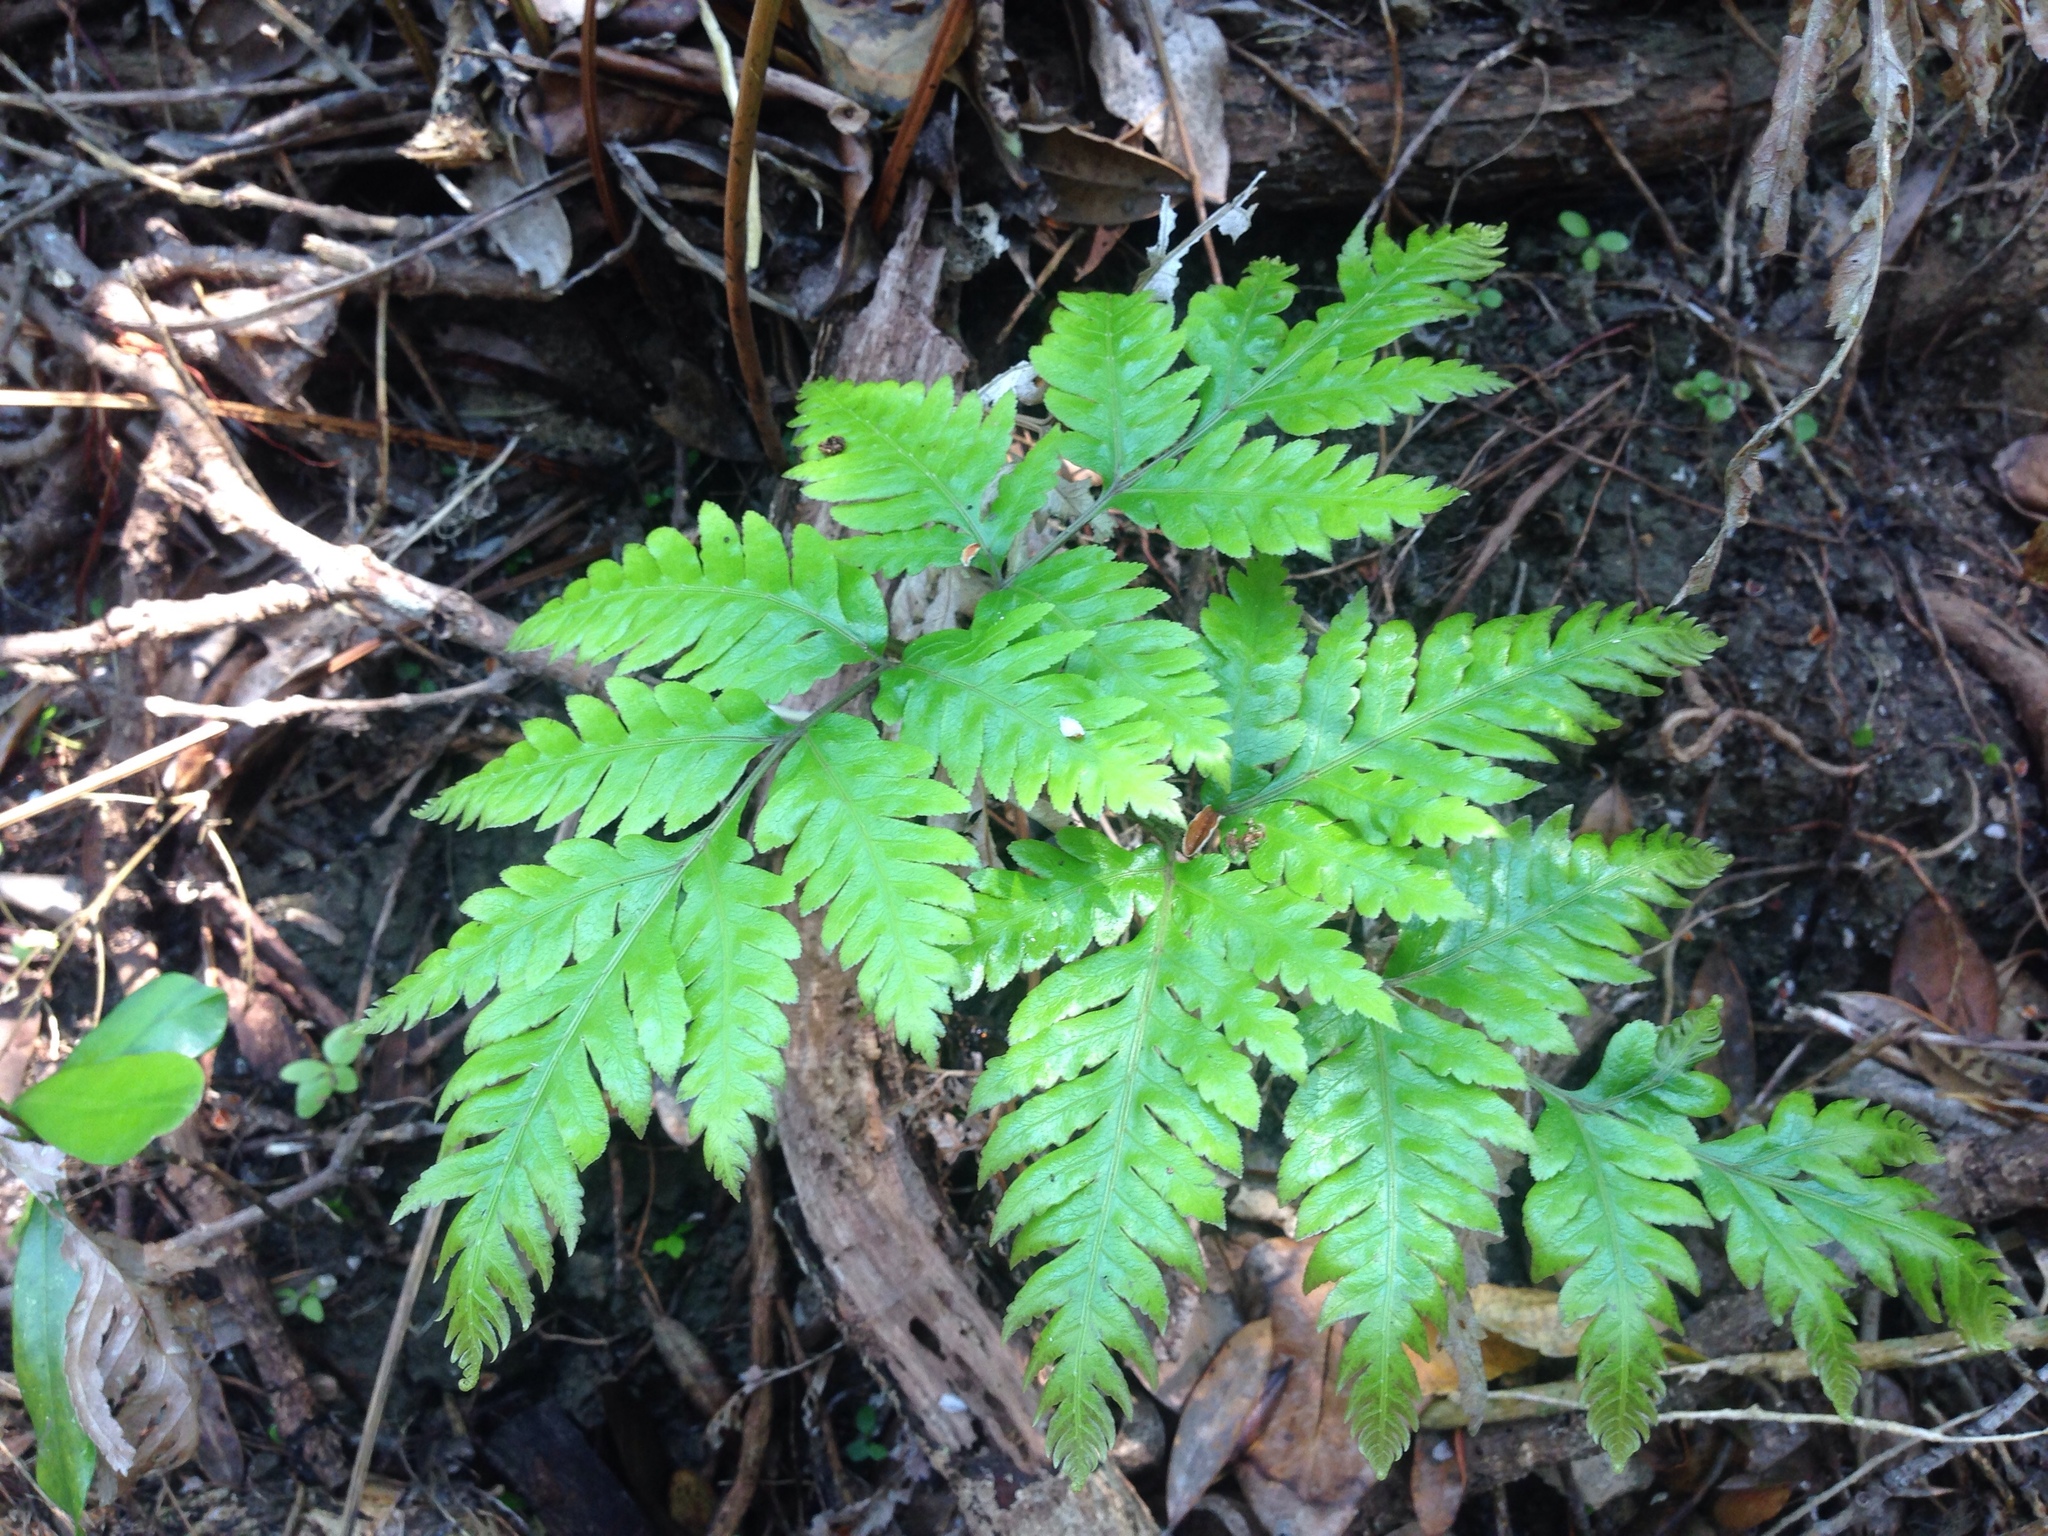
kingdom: Plantae
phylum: Tracheophyta
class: Polypodiopsida
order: Polypodiales
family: Pteridaceae
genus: Pteris
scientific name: Pteris carsei
